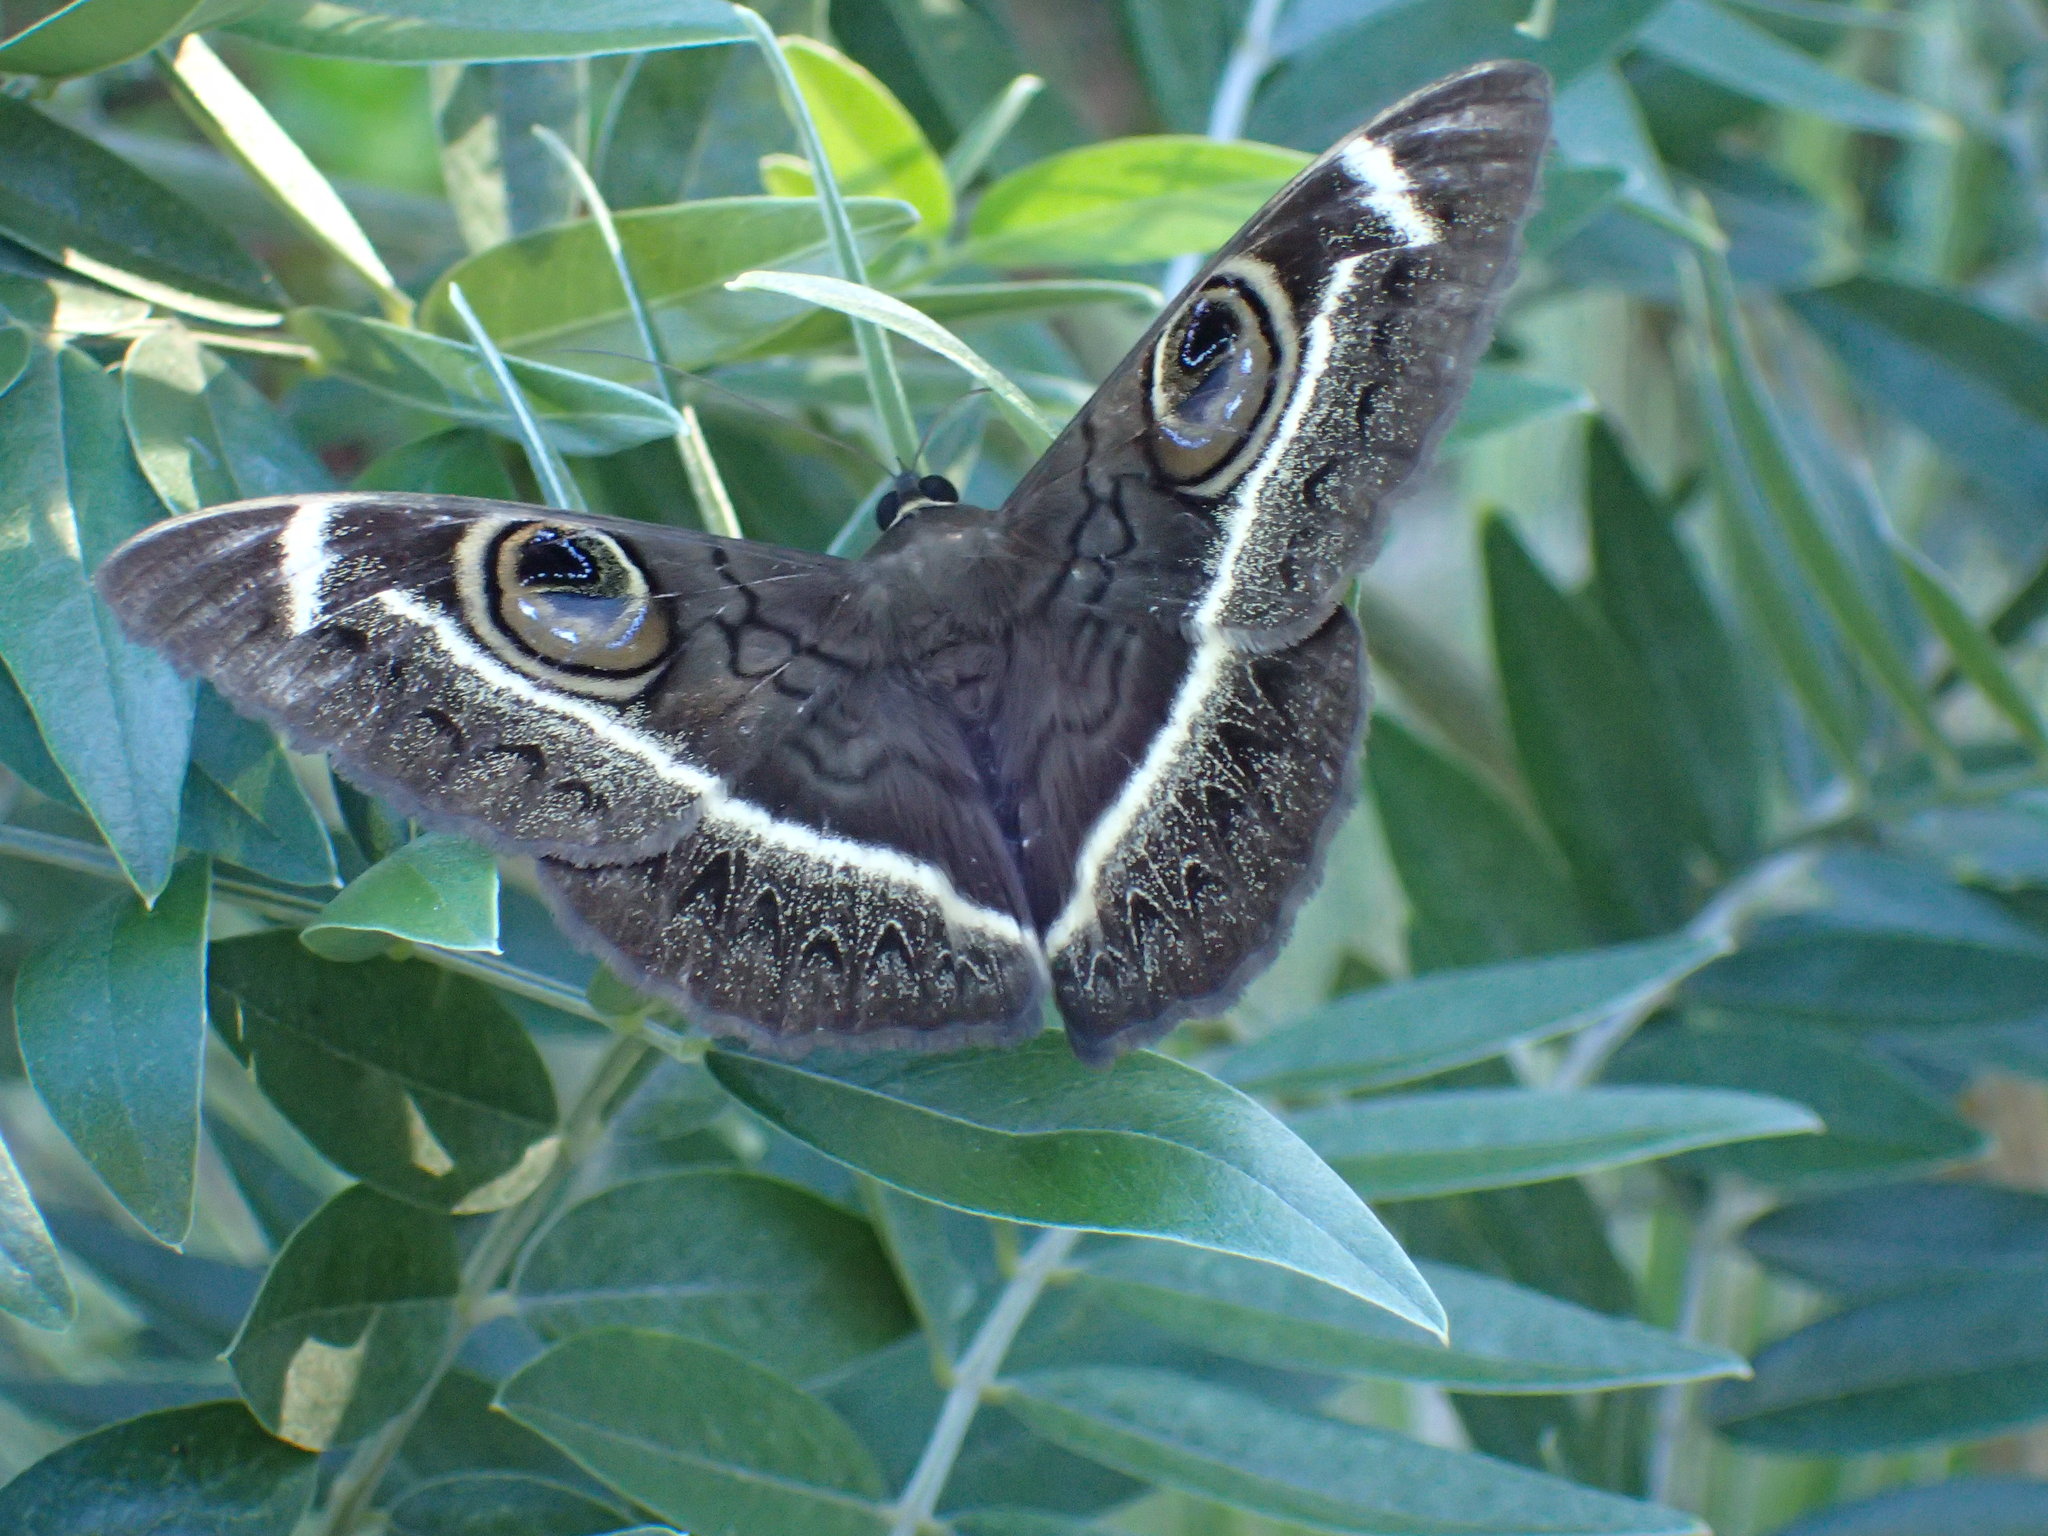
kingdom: Animalia
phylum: Arthropoda
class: Insecta
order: Lepidoptera
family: Erebidae
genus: Cyligramma
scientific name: Cyligramma latona
